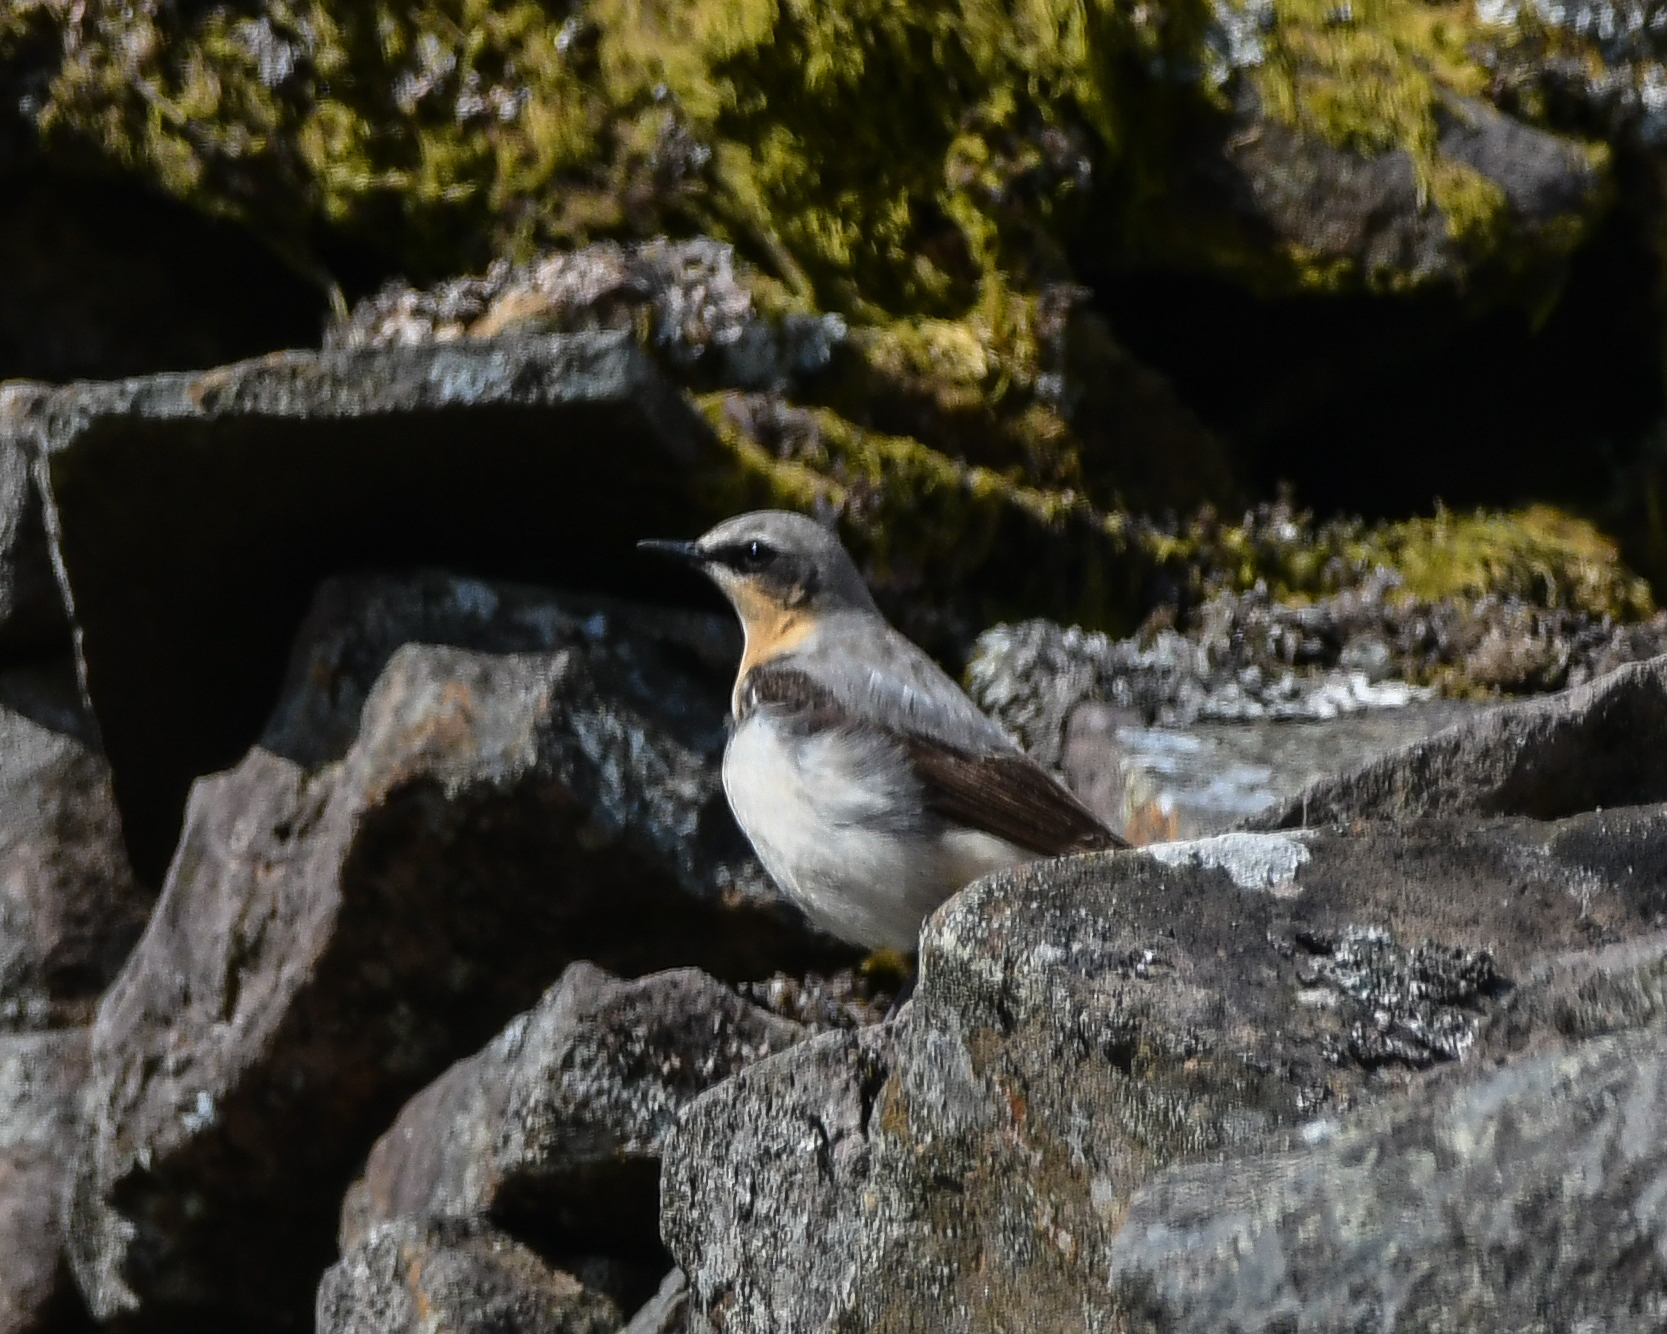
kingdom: Animalia
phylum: Chordata
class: Aves
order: Passeriformes
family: Muscicapidae
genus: Oenanthe
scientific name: Oenanthe oenanthe
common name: Northern wheatear
